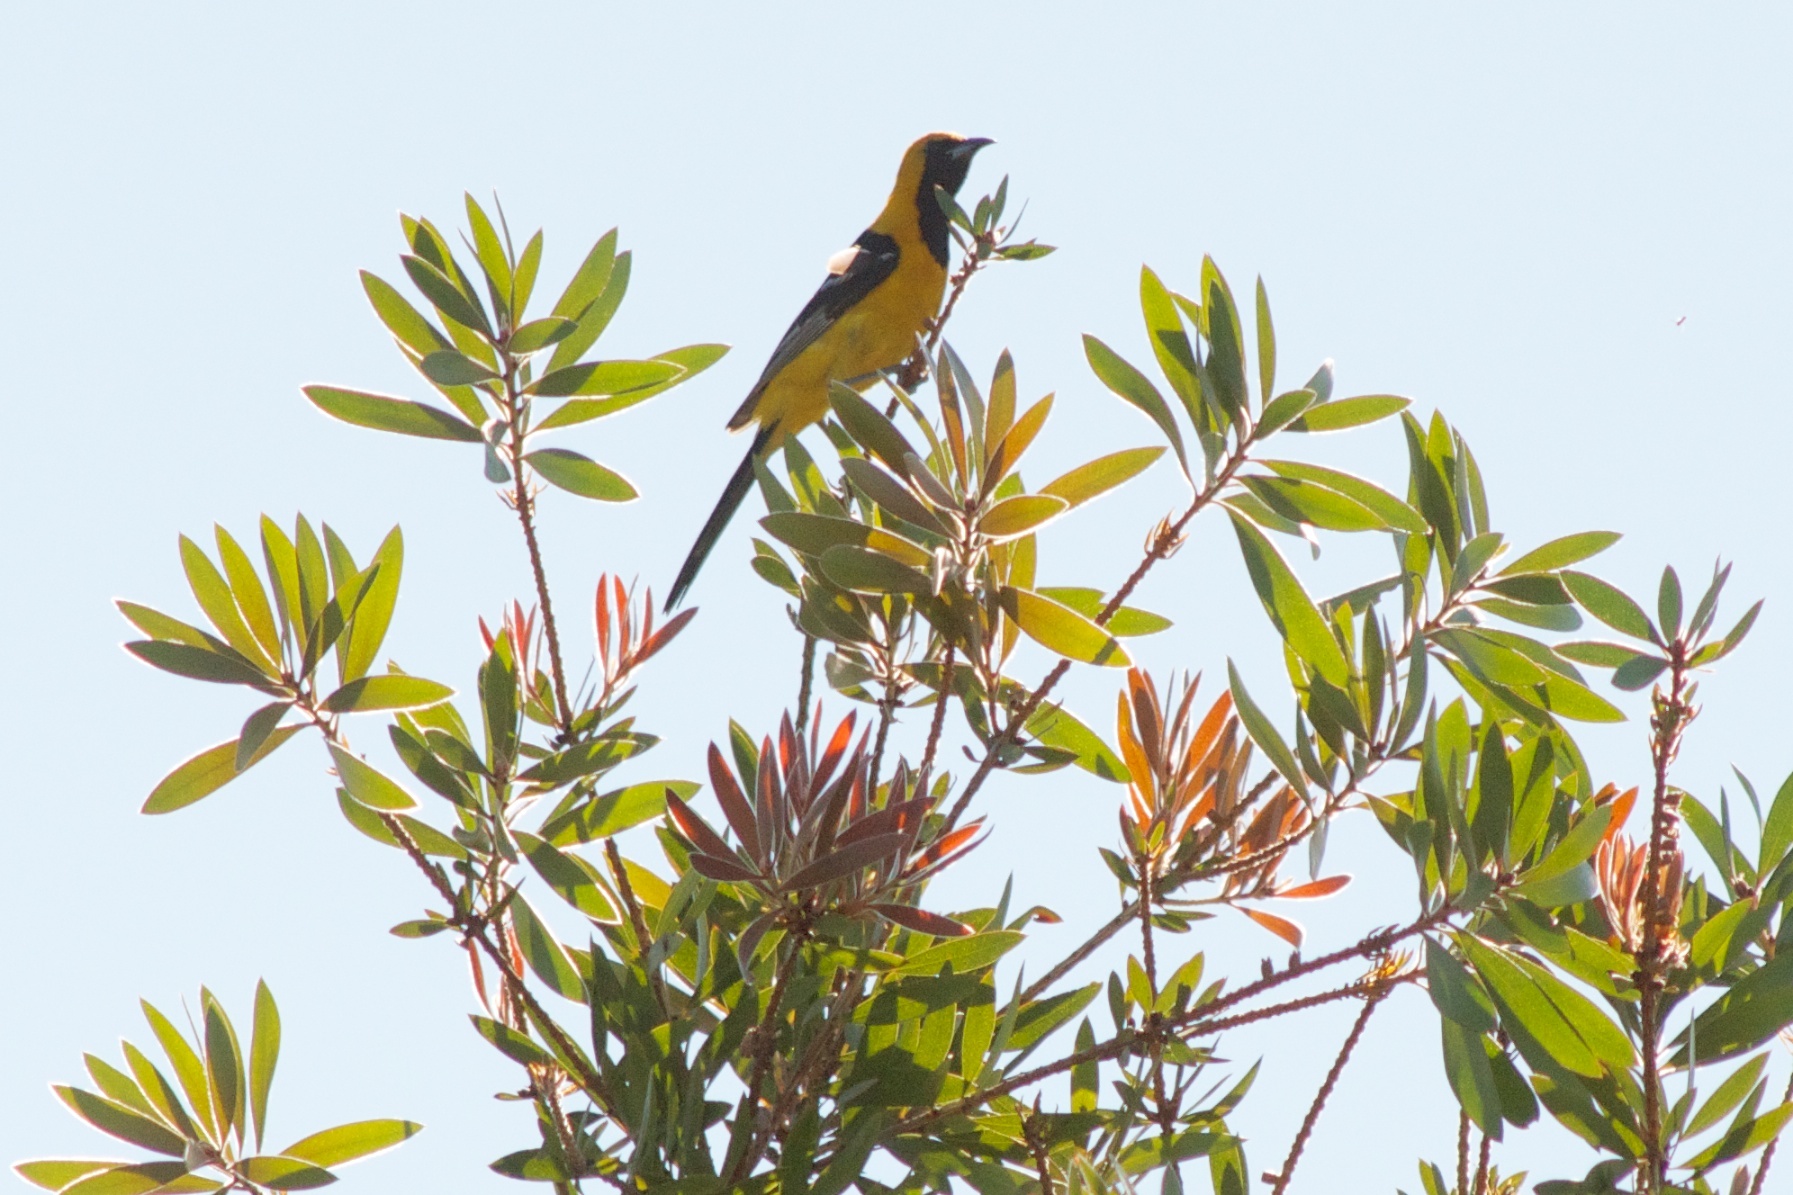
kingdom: Animalia
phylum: Chordata
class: Aves
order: Passeriformes
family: Icteridae
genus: Icterus
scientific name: Icterus cucullatus
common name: Hooded oriole
